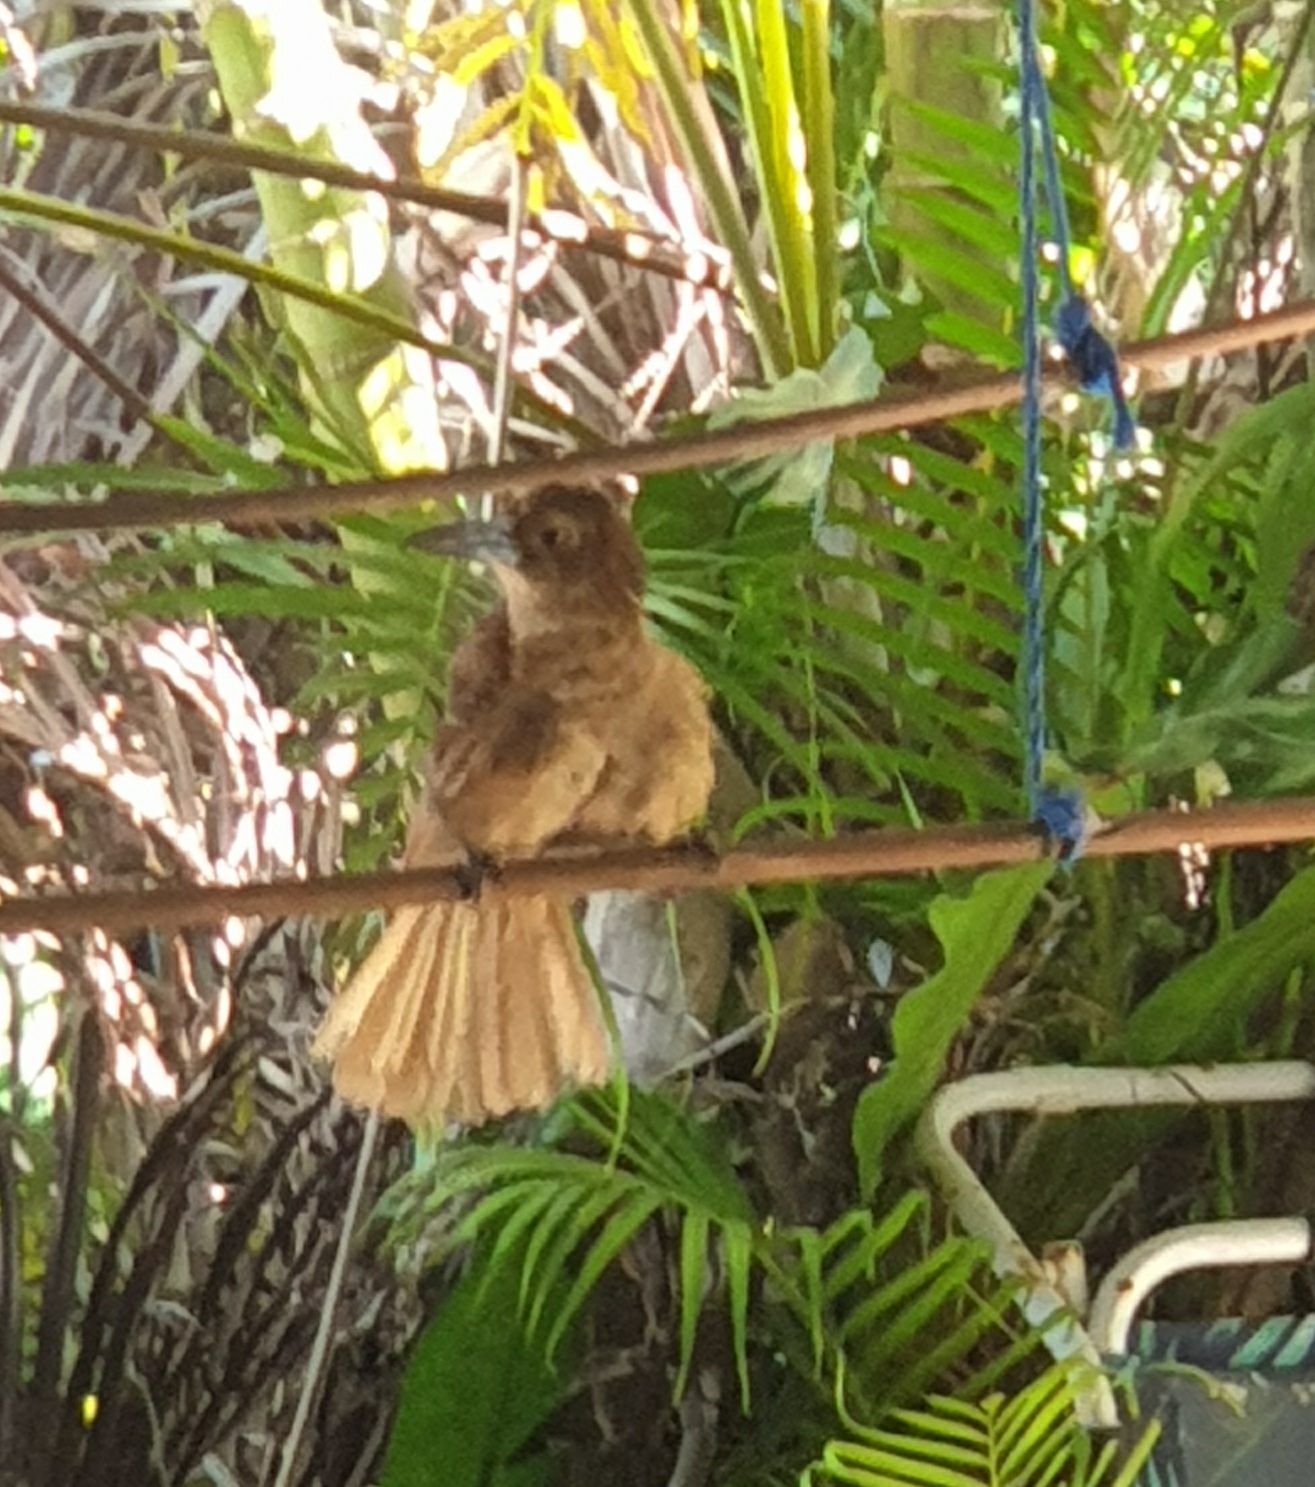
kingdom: Animalia
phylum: Chordata
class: Aves
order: Passeriformes
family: Artamidae
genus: Melloria
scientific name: Melloria quoyi
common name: Black butcherbird
